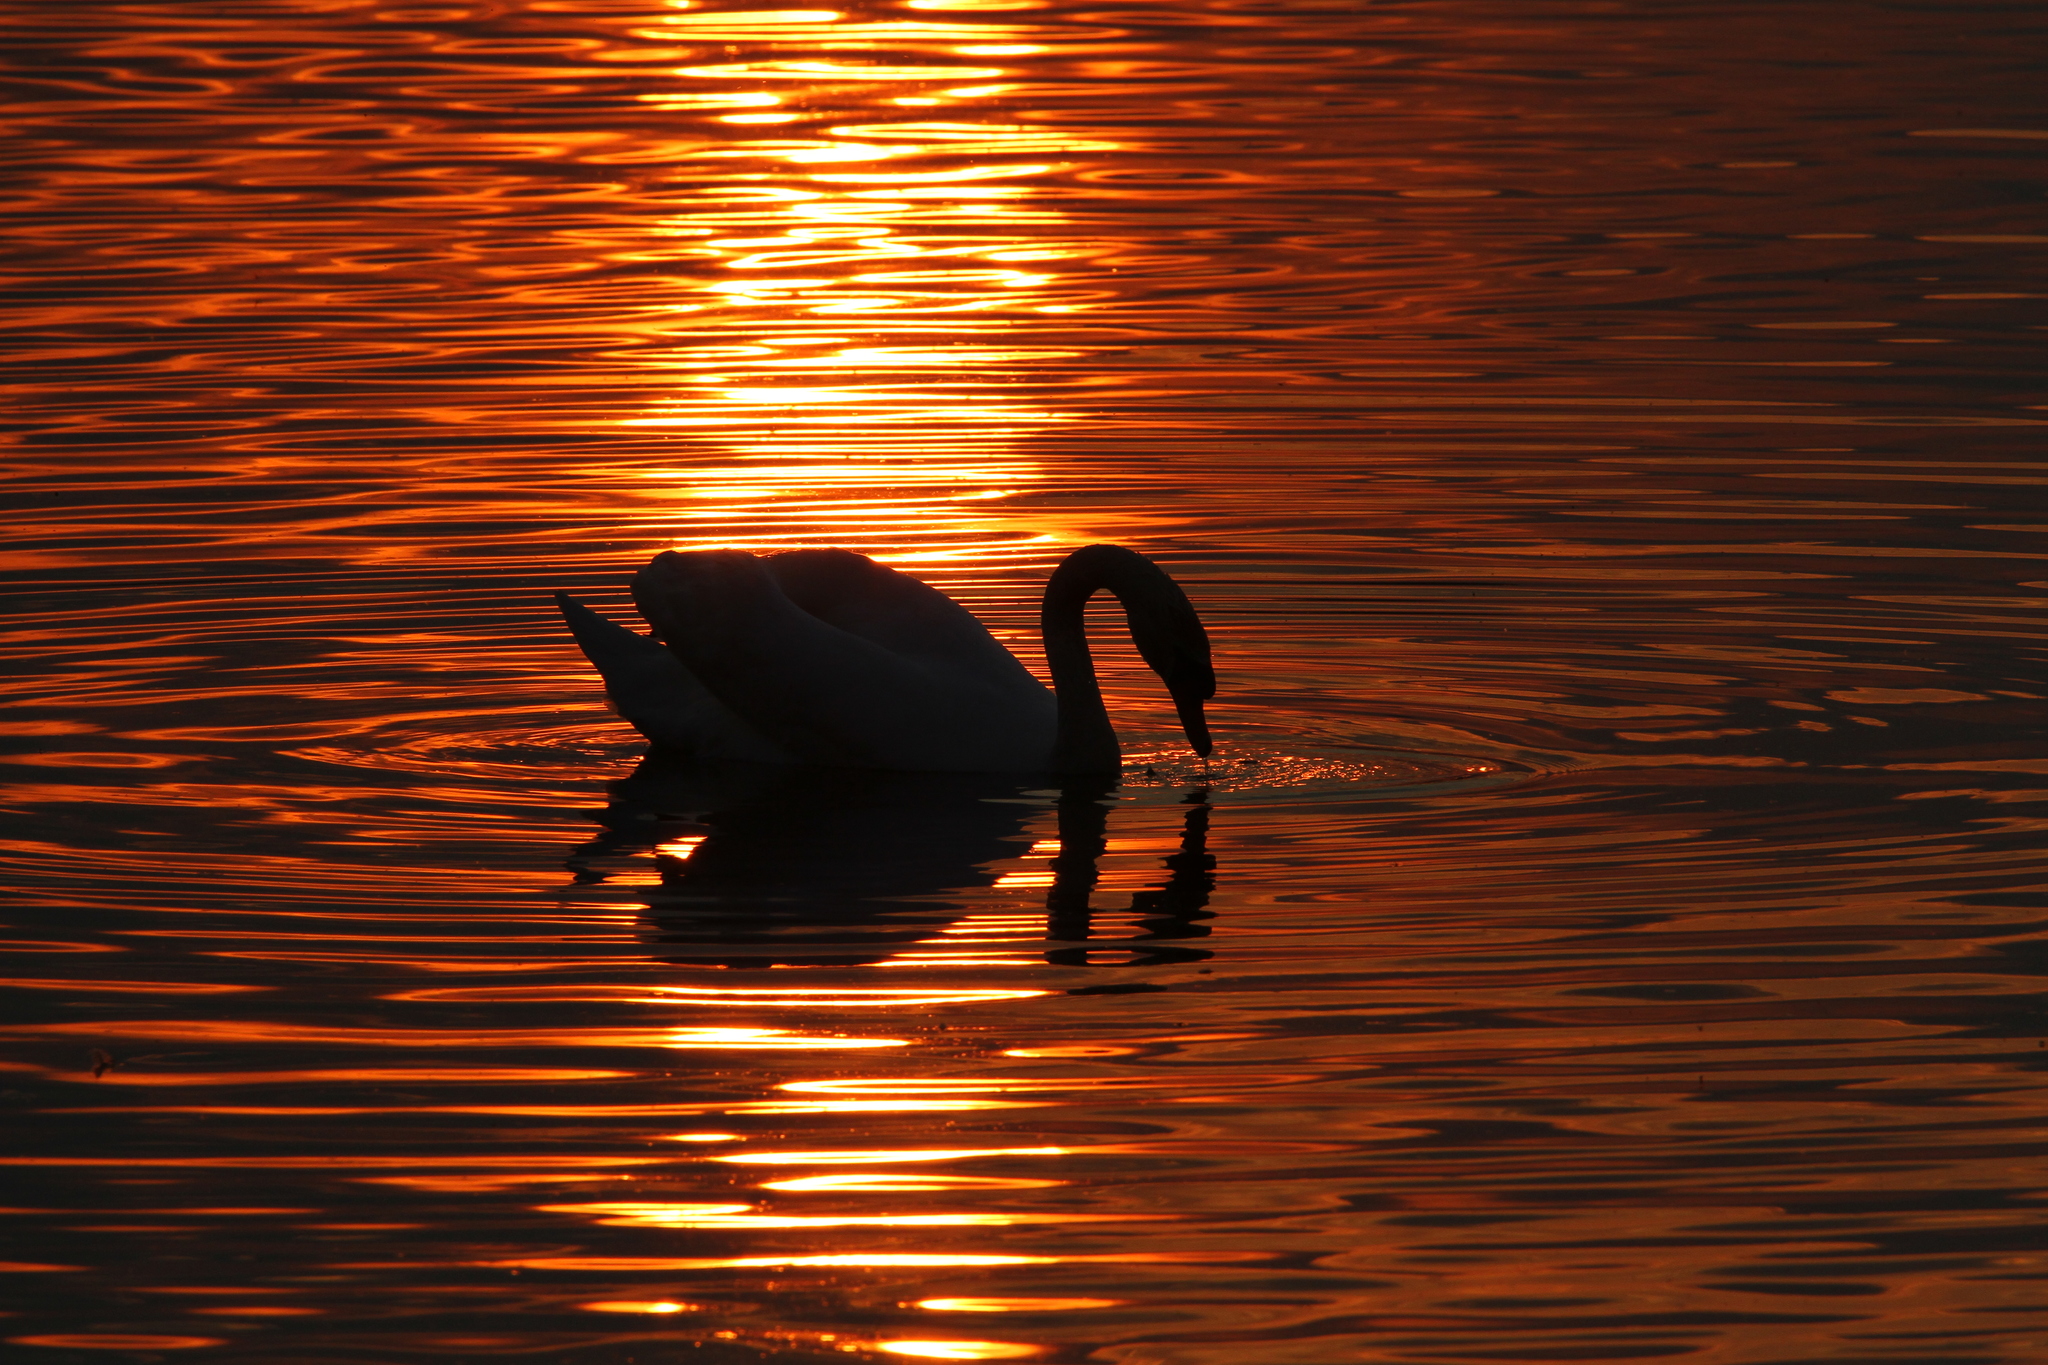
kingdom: Animalia
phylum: Chordata
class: Aves
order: Anseriformes
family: Anatidae
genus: Cygnus
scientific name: Cygnus olor
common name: Mute swan
